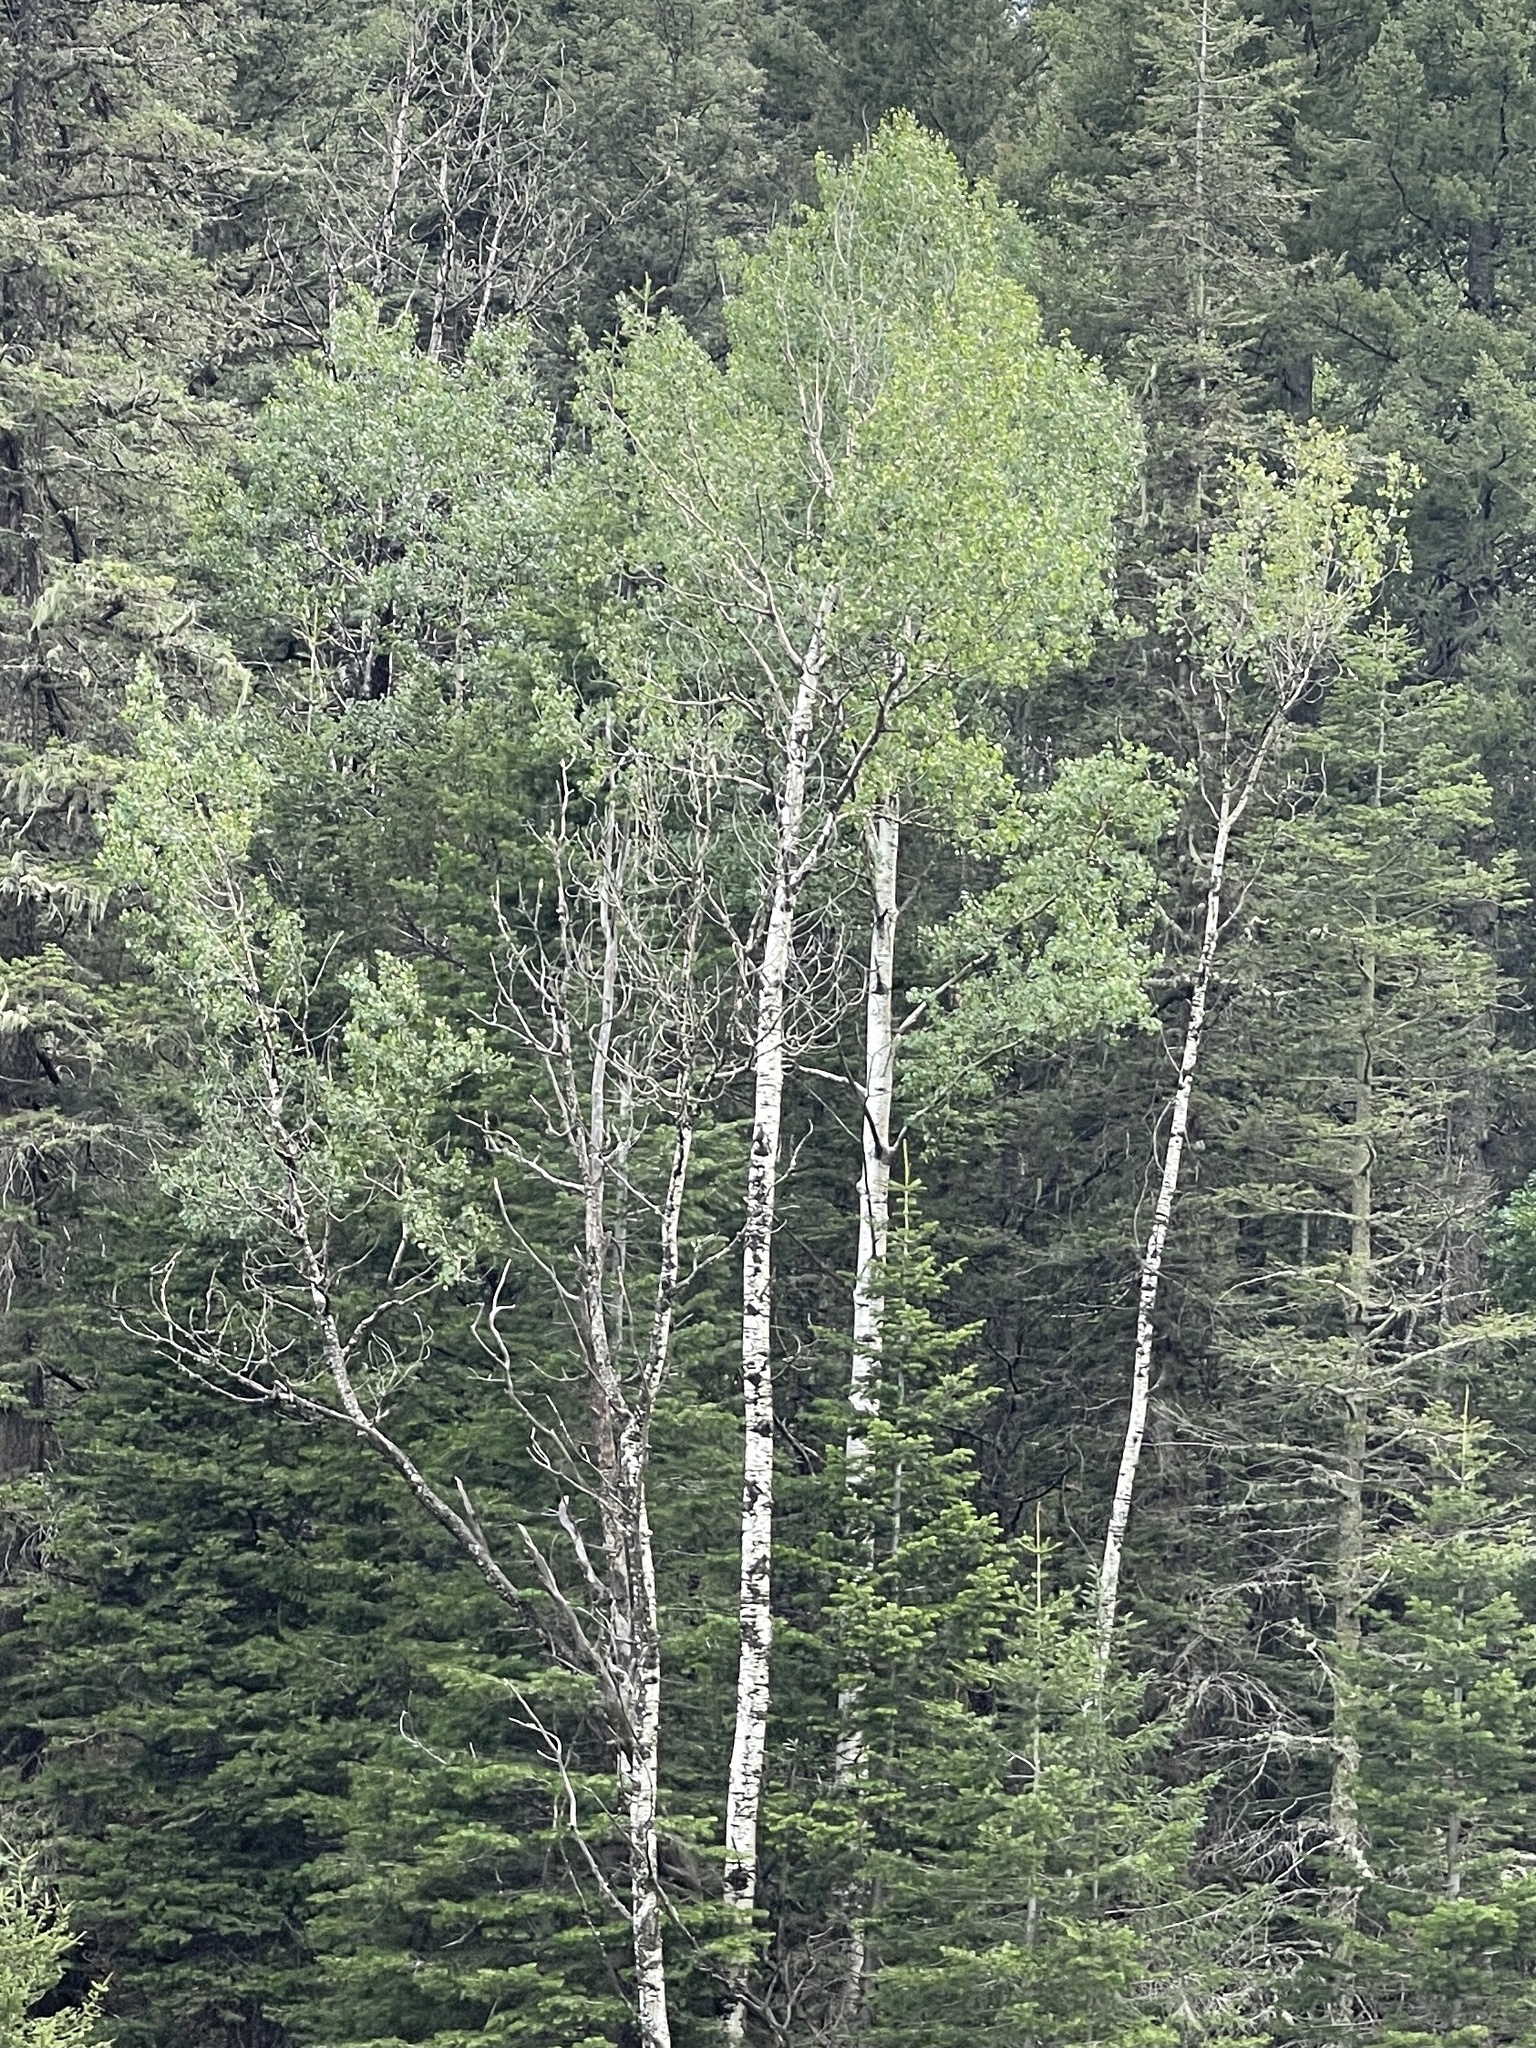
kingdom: Plantae
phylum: Tracheophyta
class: Magnoliopsida
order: Malpighiales
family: Salicaceae
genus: Populus
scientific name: Populus tremuloides
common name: Quaking aspen
